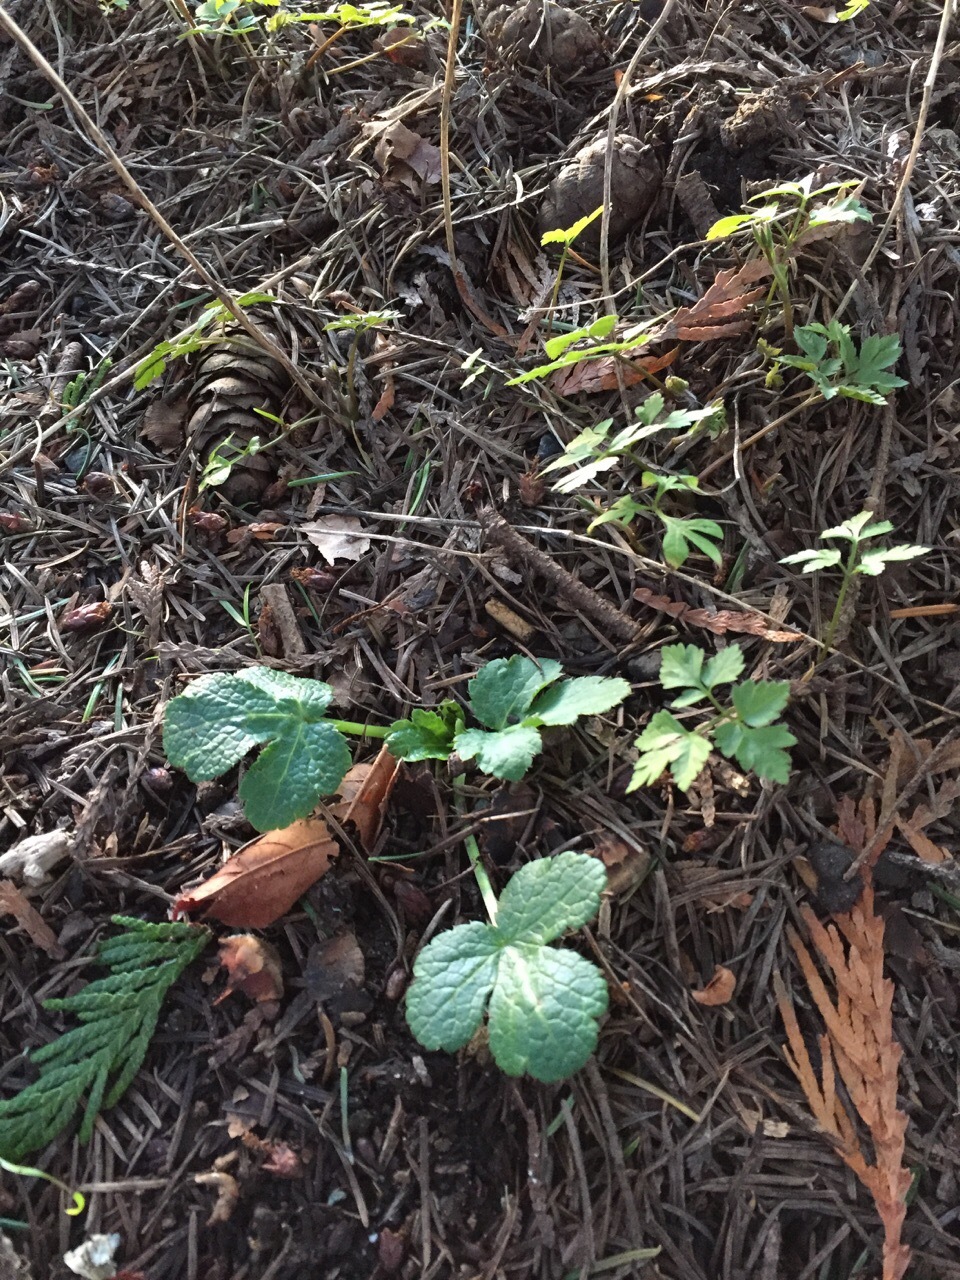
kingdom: Plantae
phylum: Tracheophyta
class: Magnoliopsida
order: Apiales
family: Apiaceae
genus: Sanicula
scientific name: Sanicula crassicaulis
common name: Western snakeroot
